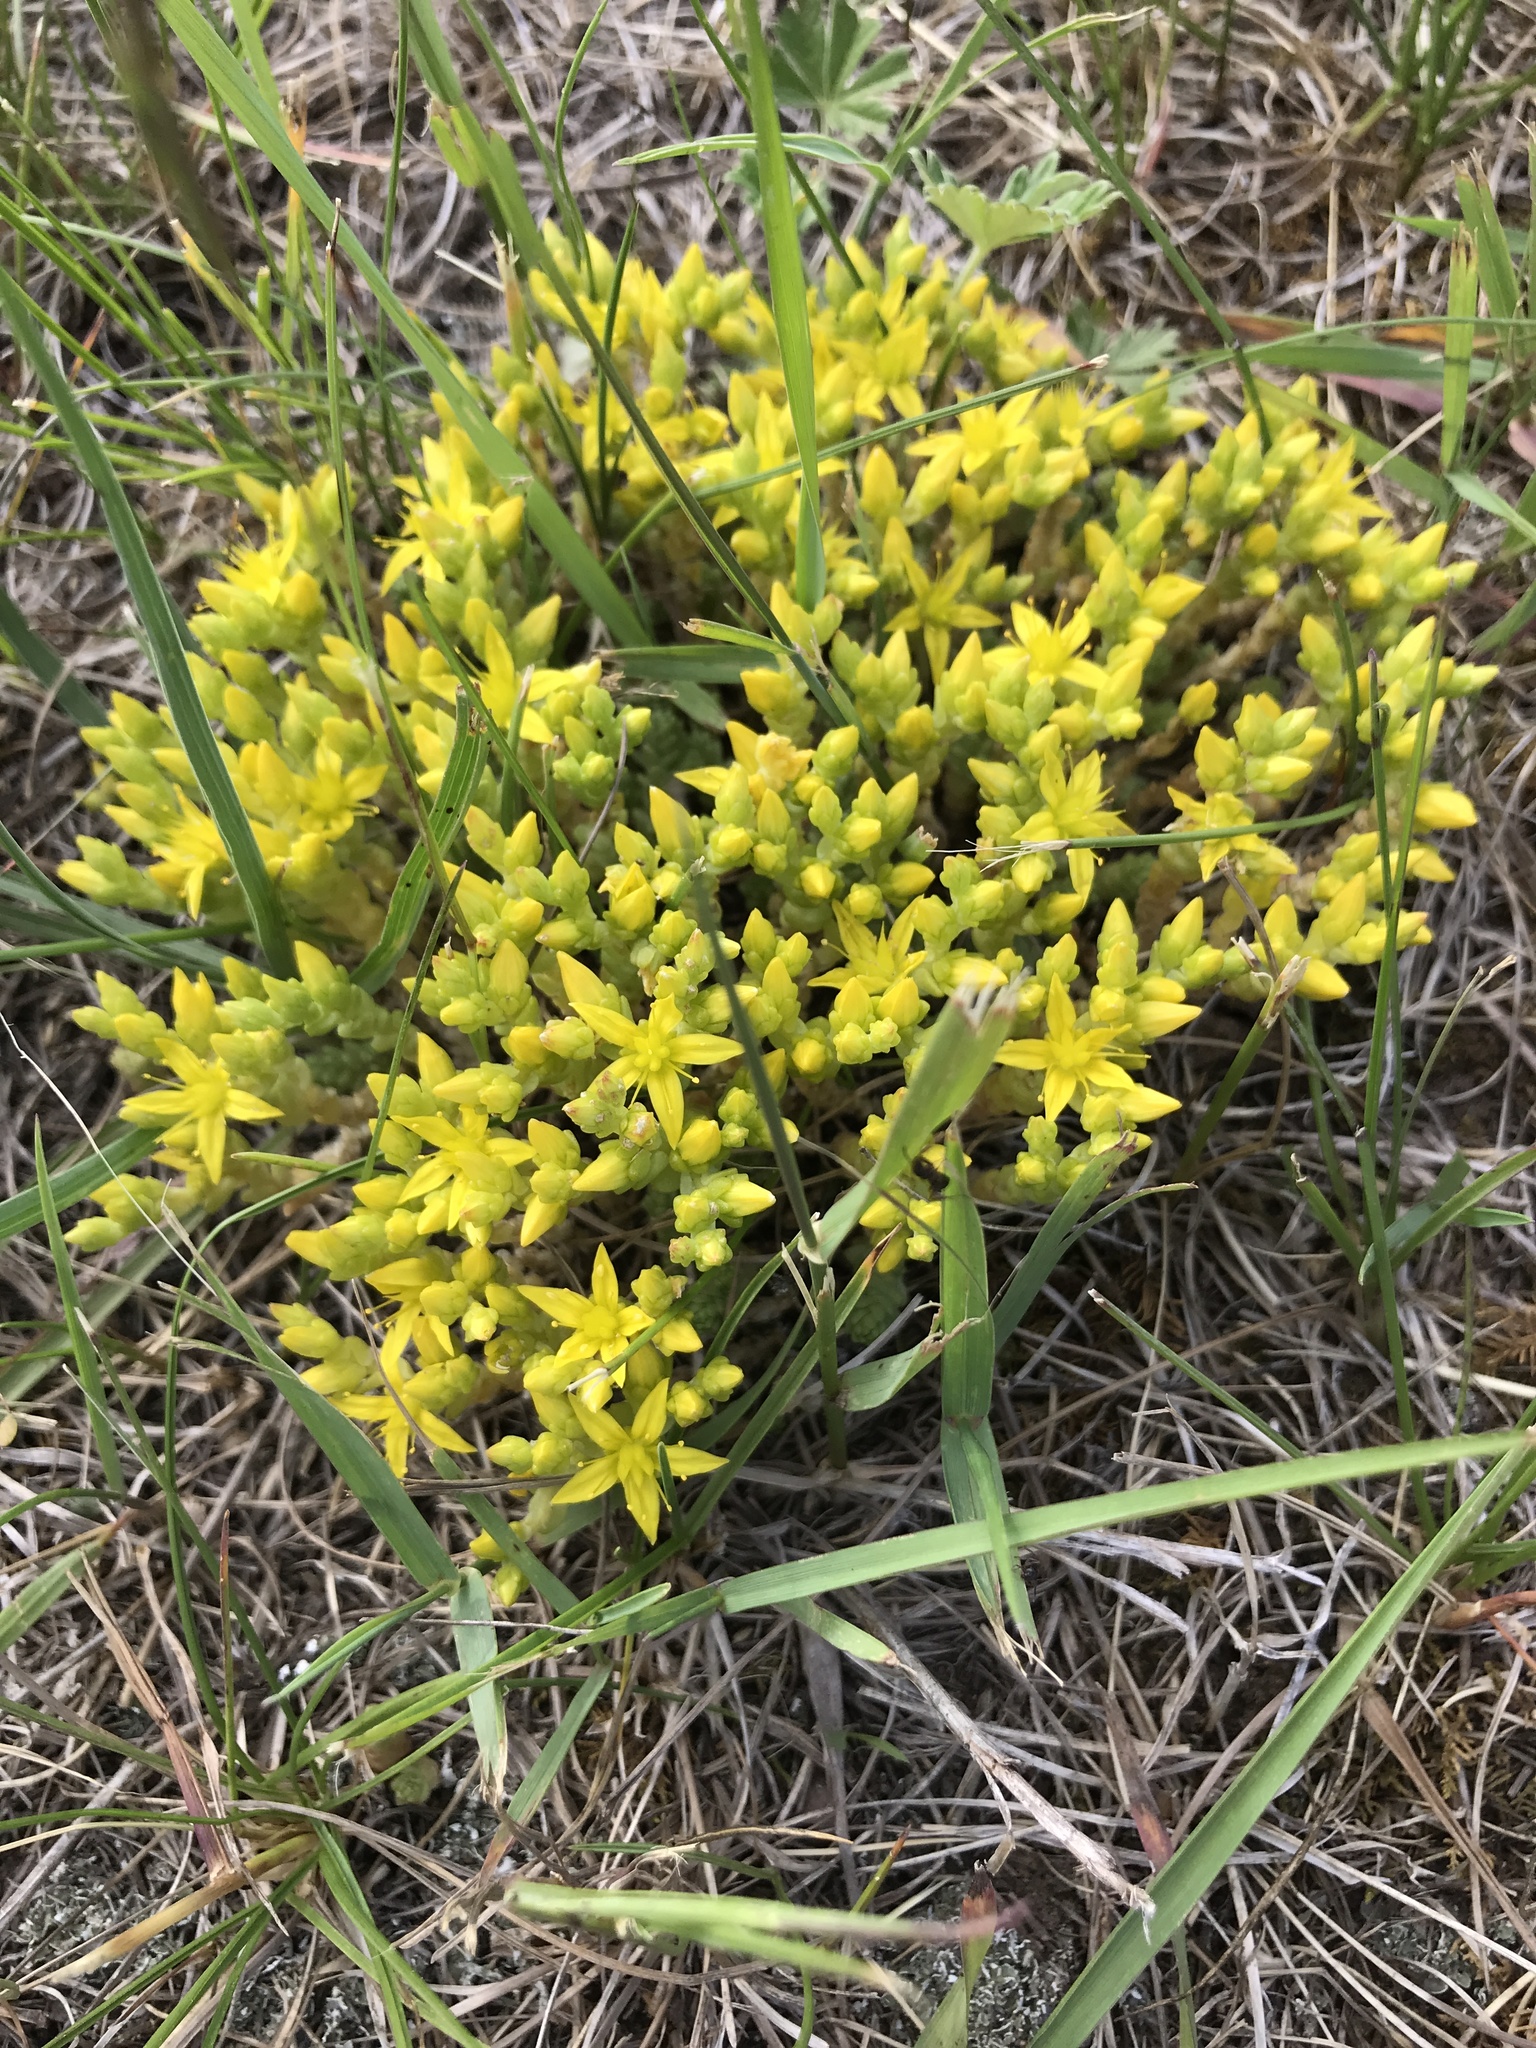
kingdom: Plantae
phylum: Tracheophyta
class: Magnoliopsida
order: Saxifragales
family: Crassulaceae
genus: Sedum
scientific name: Sedum acre
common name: Biting stonecrop
